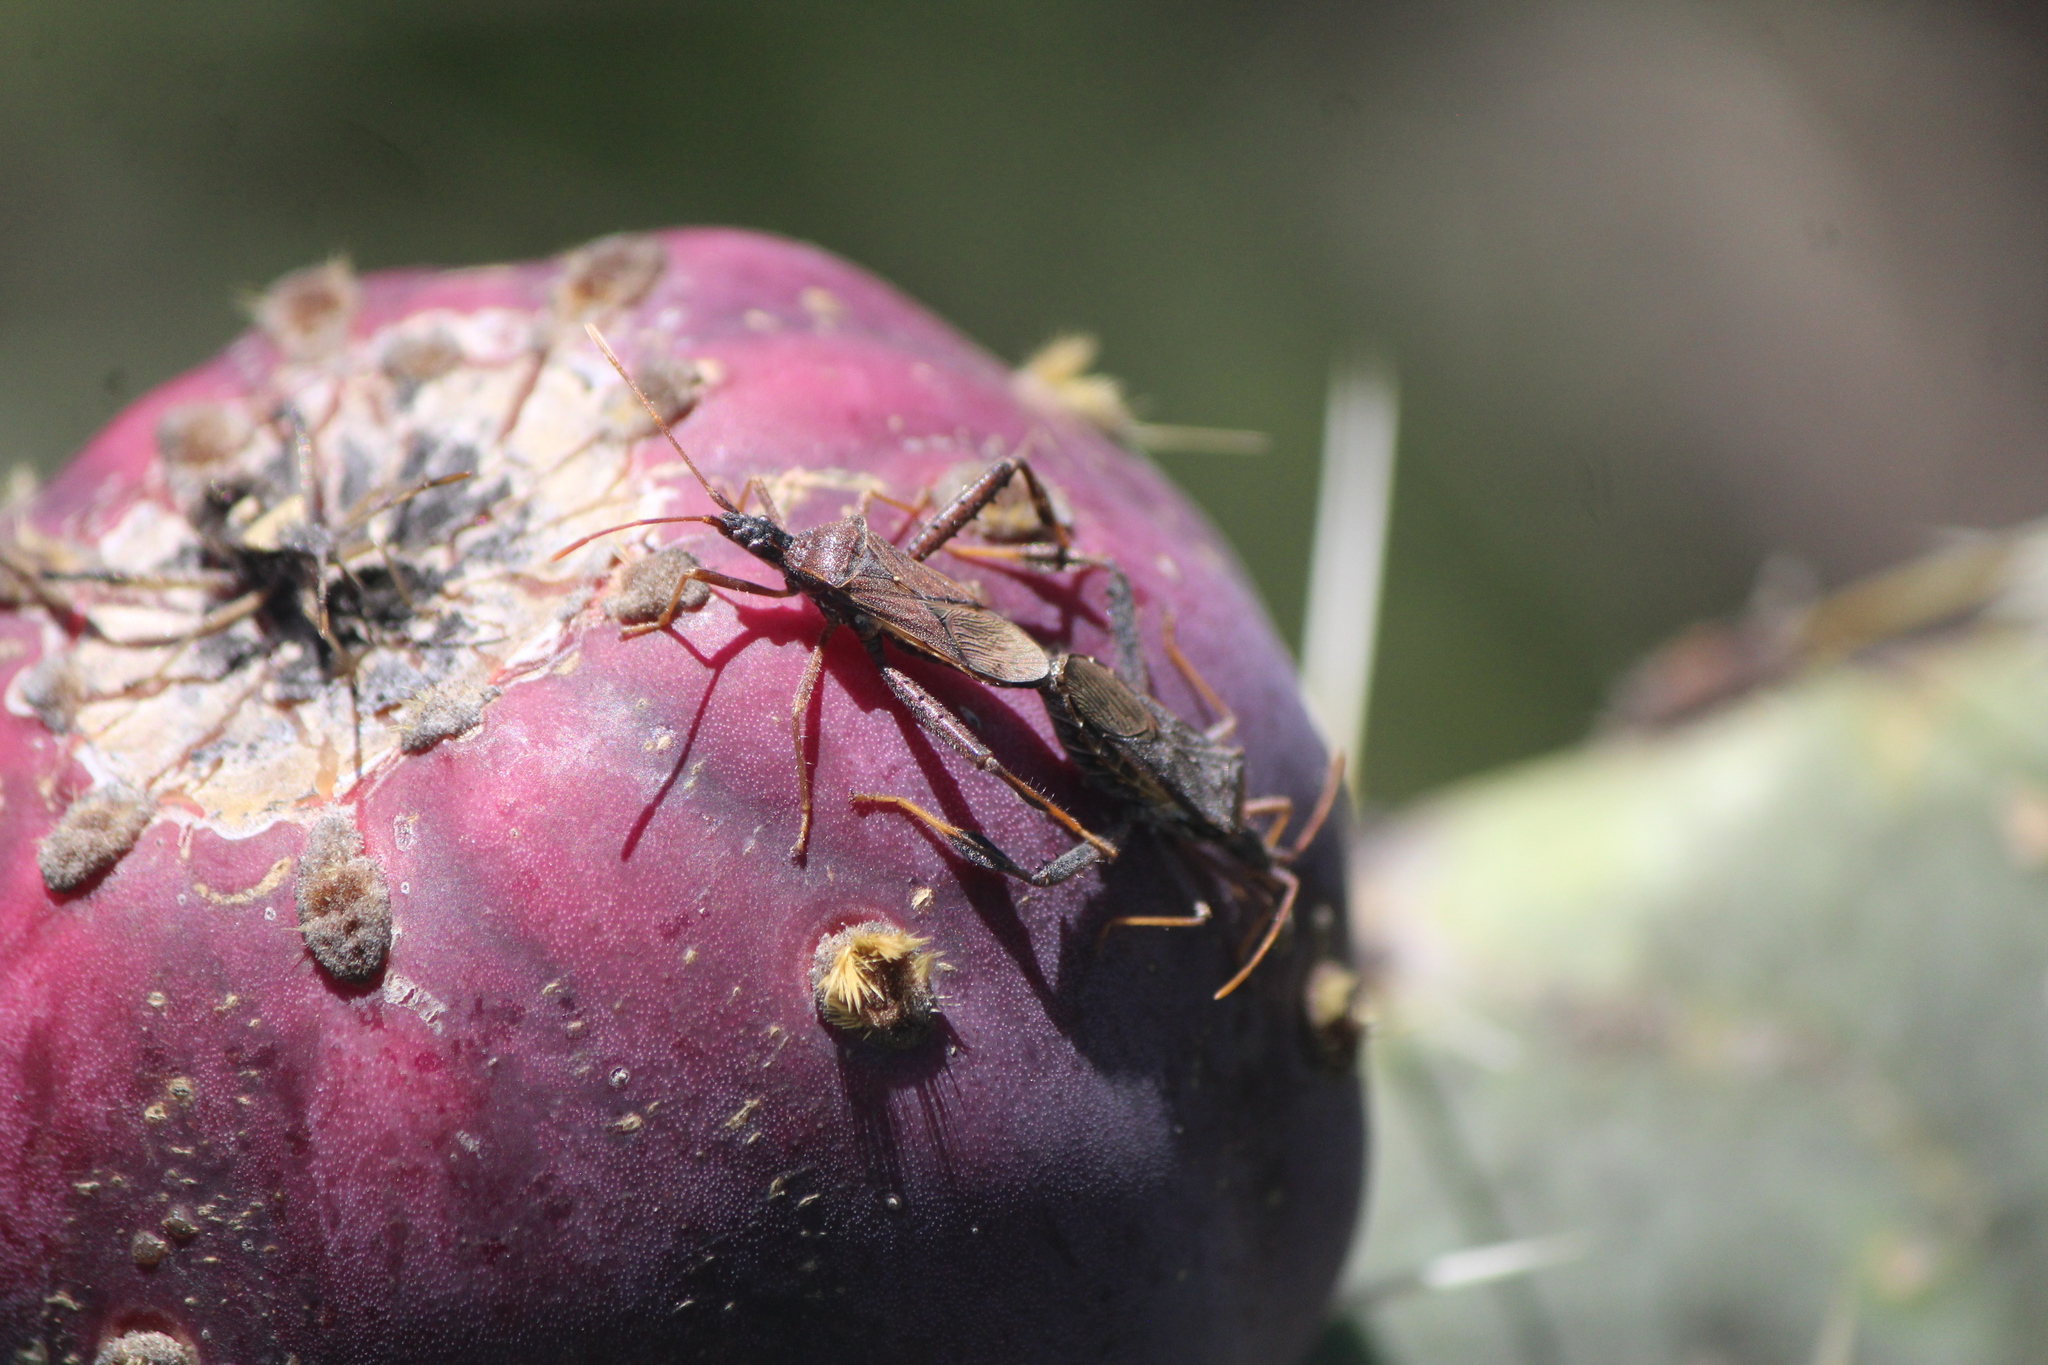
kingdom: Animalia
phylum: Arthropoda
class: Insecta
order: Hemiptera
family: Coreidae
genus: Narnia
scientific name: Narnia inornata
